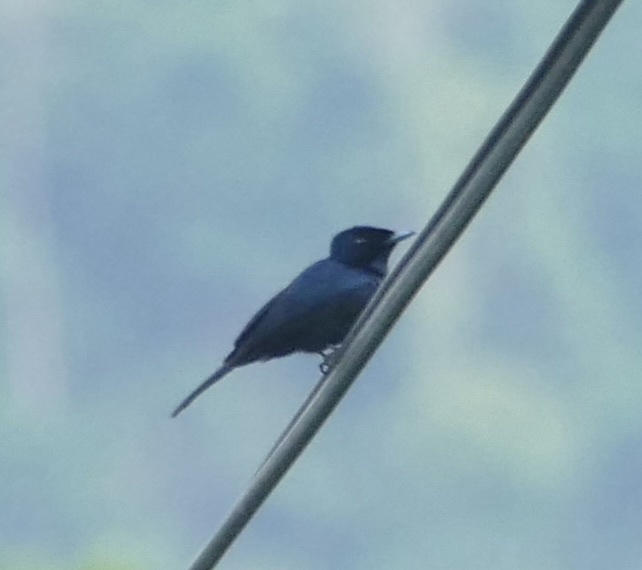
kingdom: Animalia
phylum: Chordata
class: Aves
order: Passeriformes
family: Monarchidae
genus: Myiagra
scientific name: Myiagra alecto
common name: Shining flycatcher
